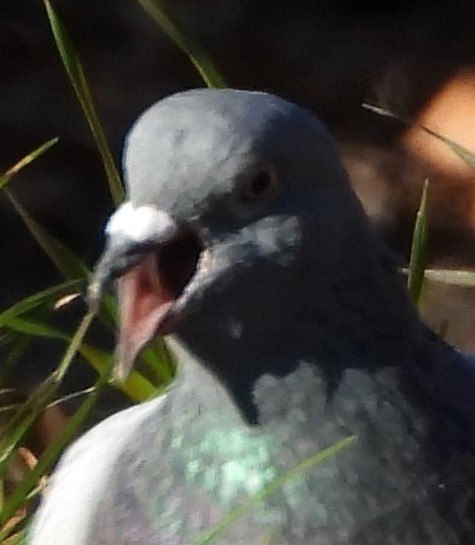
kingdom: Animalia
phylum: Chordata
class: Aves
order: Columbiformes
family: Columbidae
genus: Columba
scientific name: Columba livia
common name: Rock pigeon
